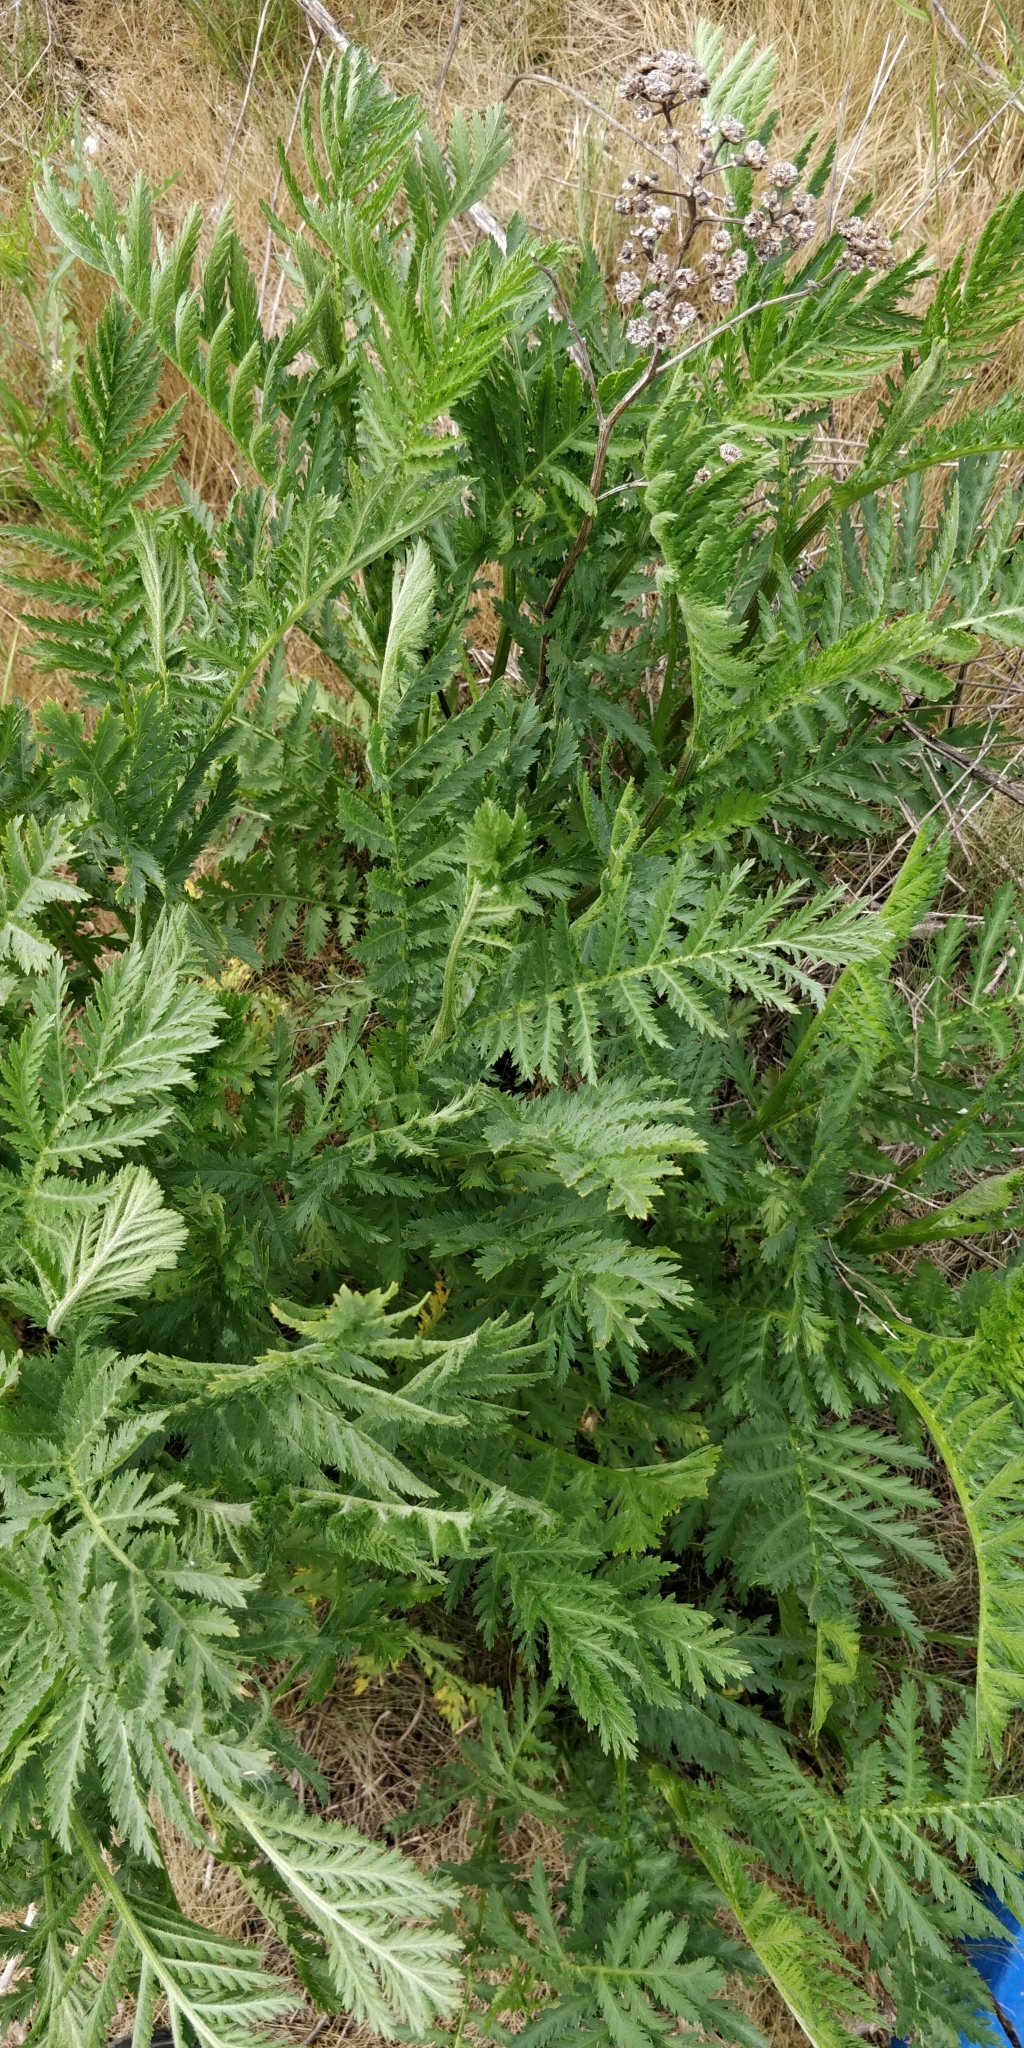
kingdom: Plantae
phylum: Tracheophyta
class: Magnoliopsida
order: Asterales
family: Asteraceae
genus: Tanacetum
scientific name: Tanacetum vulgare
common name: Common tansy
